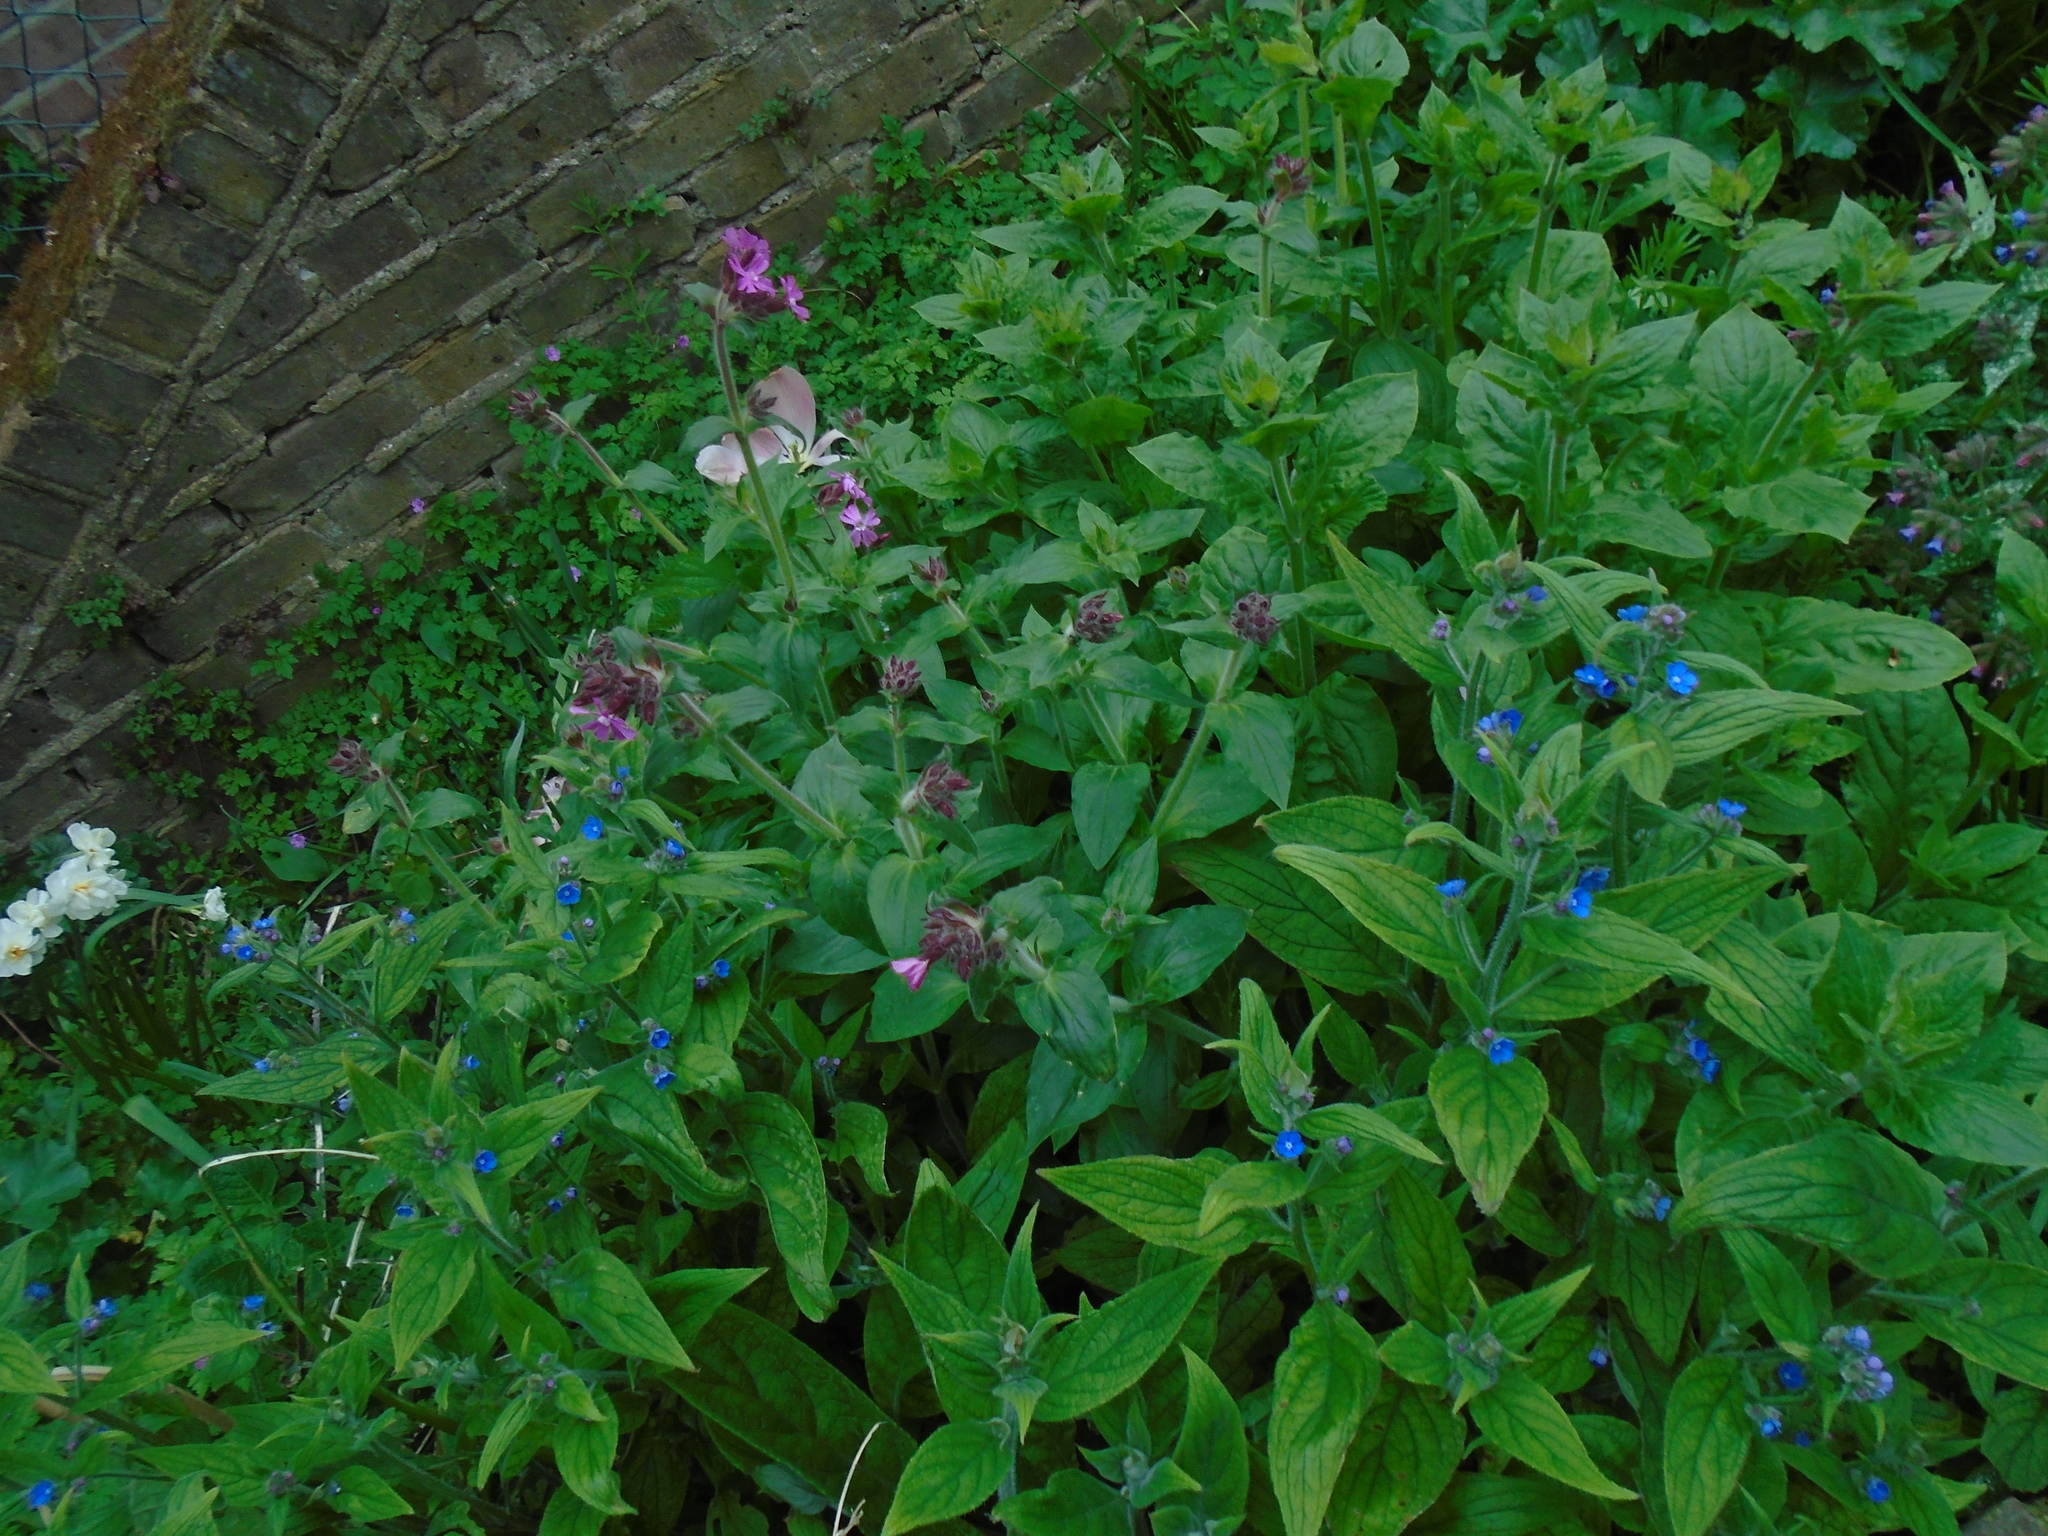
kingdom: Plantae
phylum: Tracheophyta
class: Magnoliopsida
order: Caryophyllales
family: Caryophyllaceae
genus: Silene
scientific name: Silene dioica
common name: Red campion
